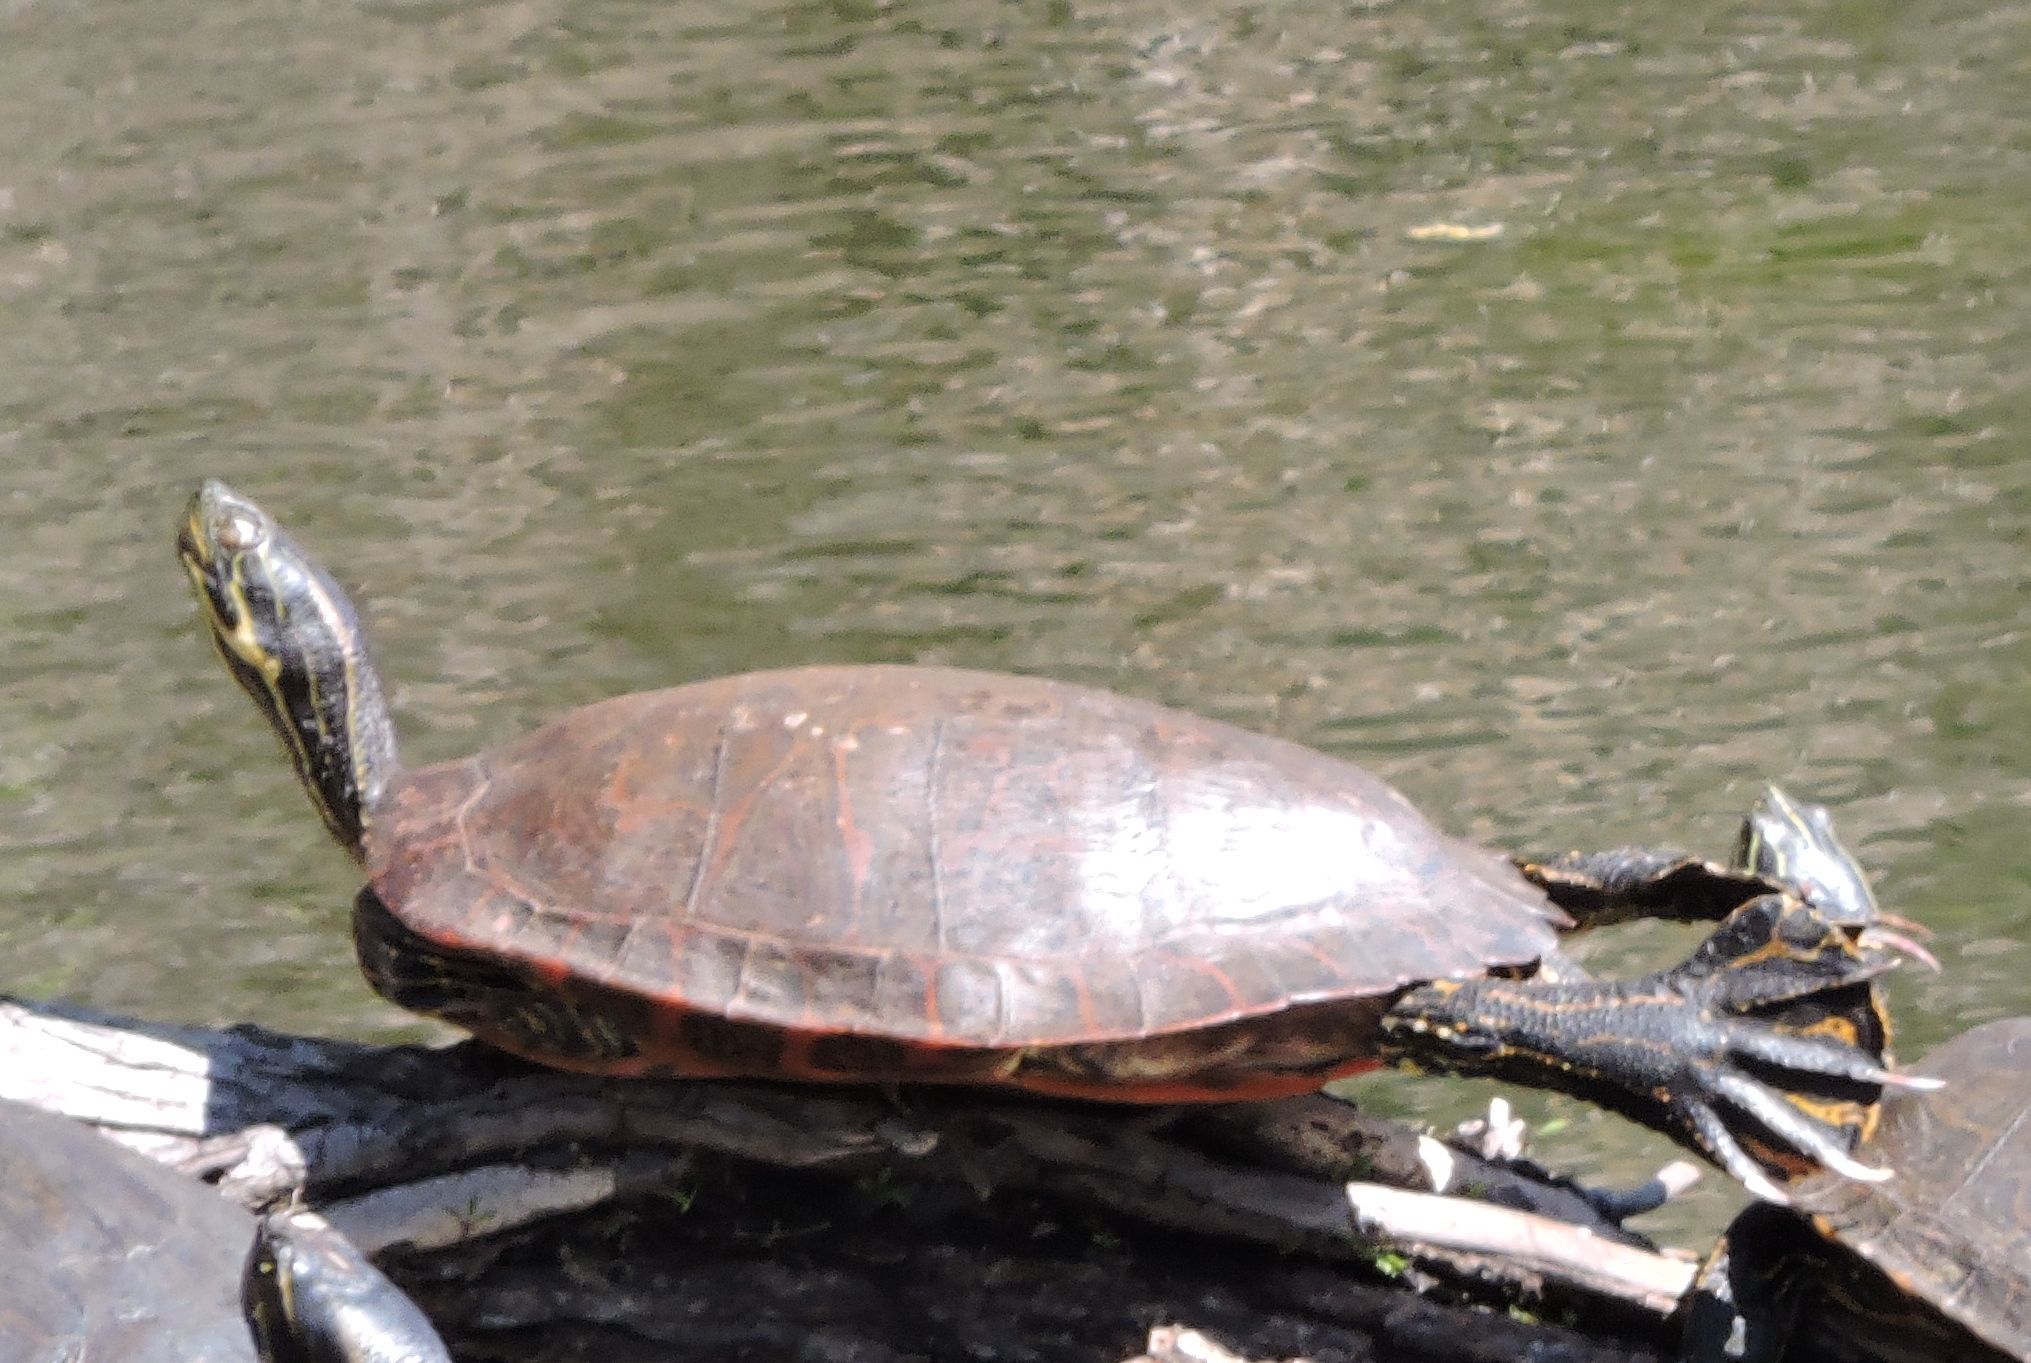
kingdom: Animalia
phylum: Chordata
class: Testudines
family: Emydidae
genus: Pseudemys
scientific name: Pseudemys rubriventris
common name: American red-bellied turtle
